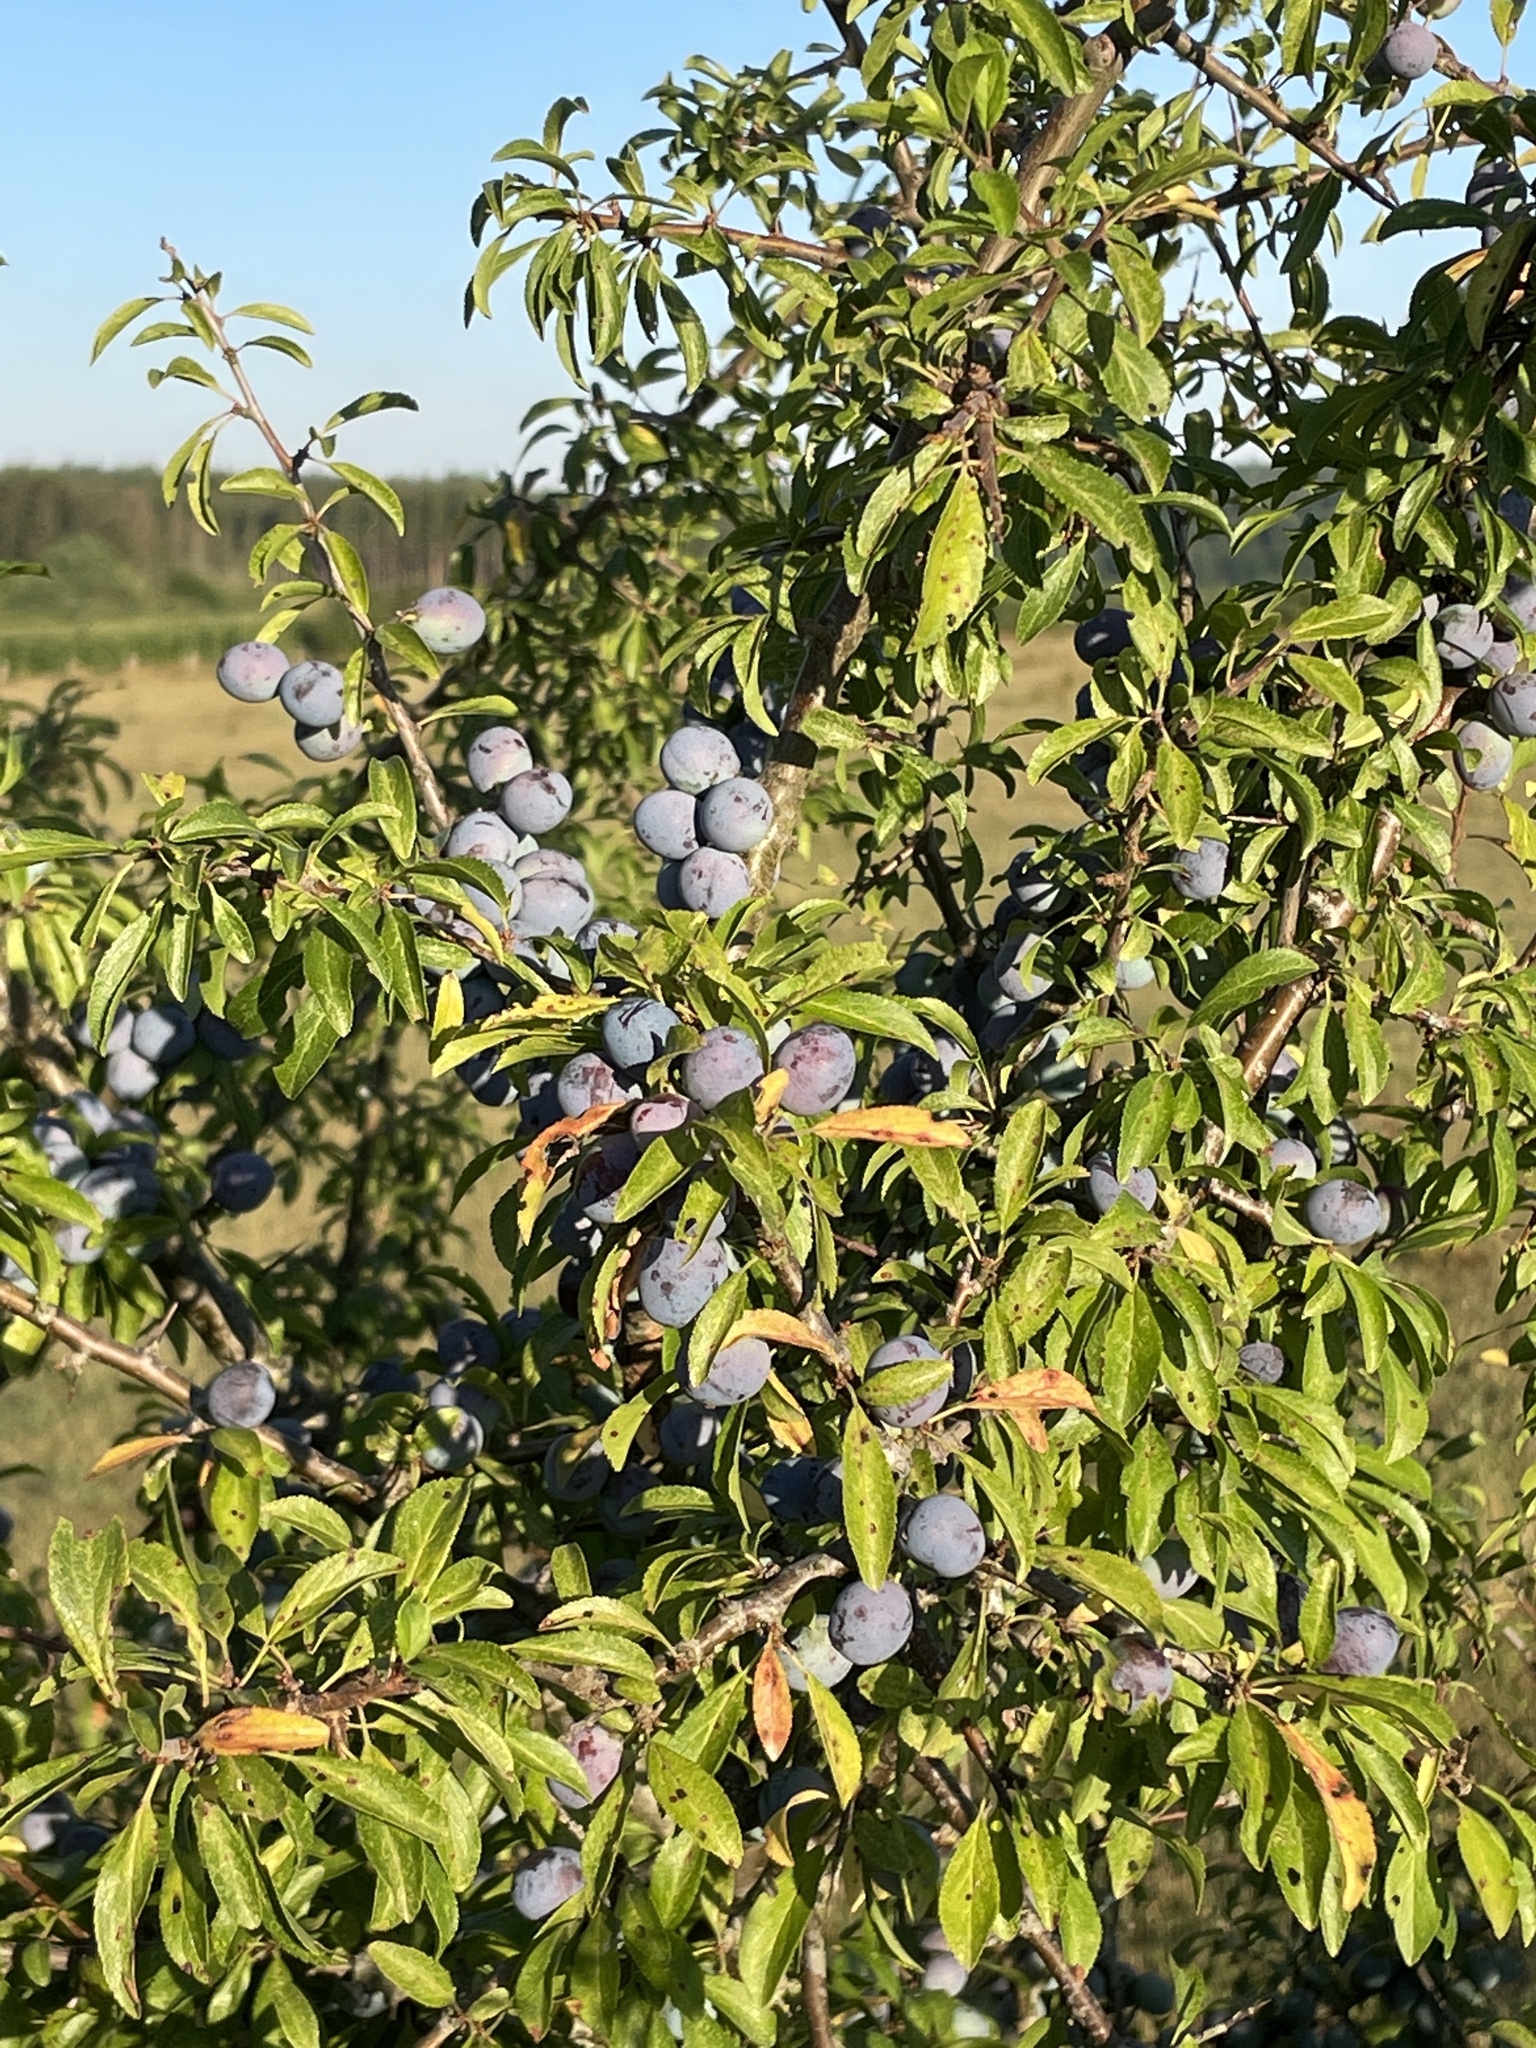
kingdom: Plantae
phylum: Tracheophyta
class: Magnoliopsida
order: Rosales
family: Rosaceae
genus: Prunus
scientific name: Prunus spinosa
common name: Blackthorn
